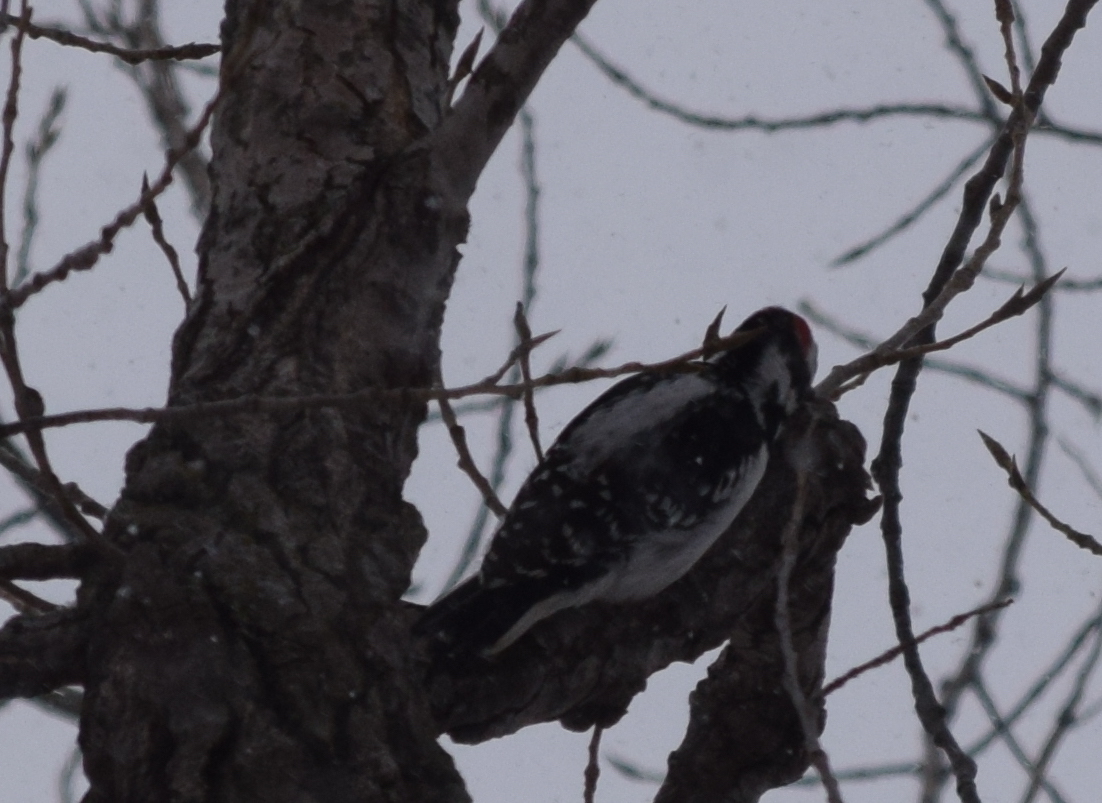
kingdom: Animalia
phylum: Chordata
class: Aves
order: Piciformes
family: Picidae
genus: Leuconotopicus
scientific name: Leuconotopicus villosus
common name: Hairy woodpecker
